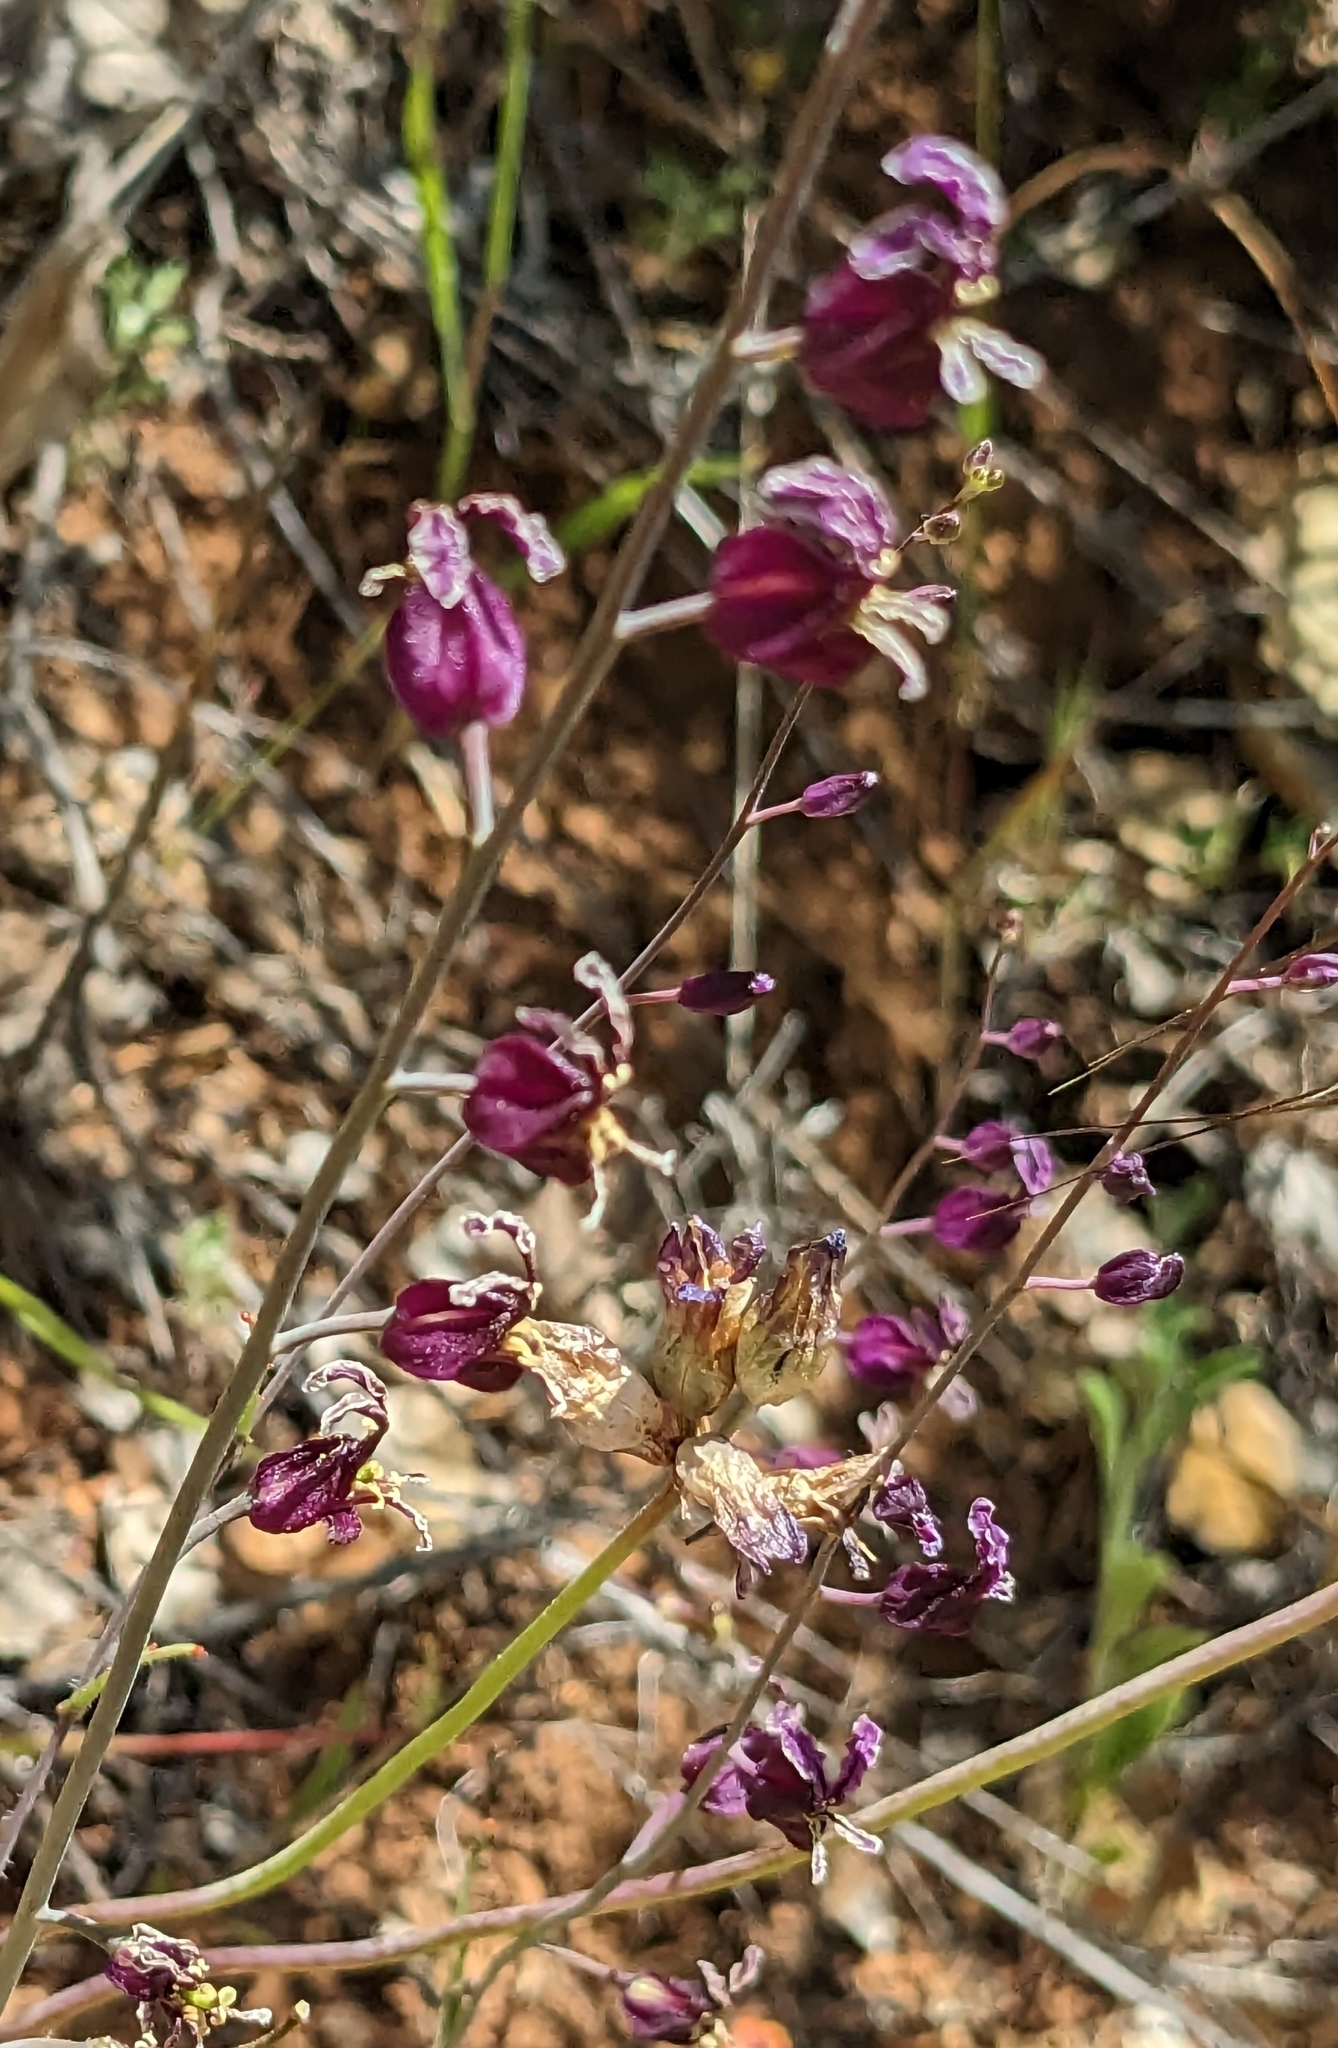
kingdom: Plantae
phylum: Tracheophyta
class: Magnoliopsida
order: Brassicales
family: Brassicaceae
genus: Streptanthus
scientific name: Streptanthus glandulosus
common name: Jewel-flower
